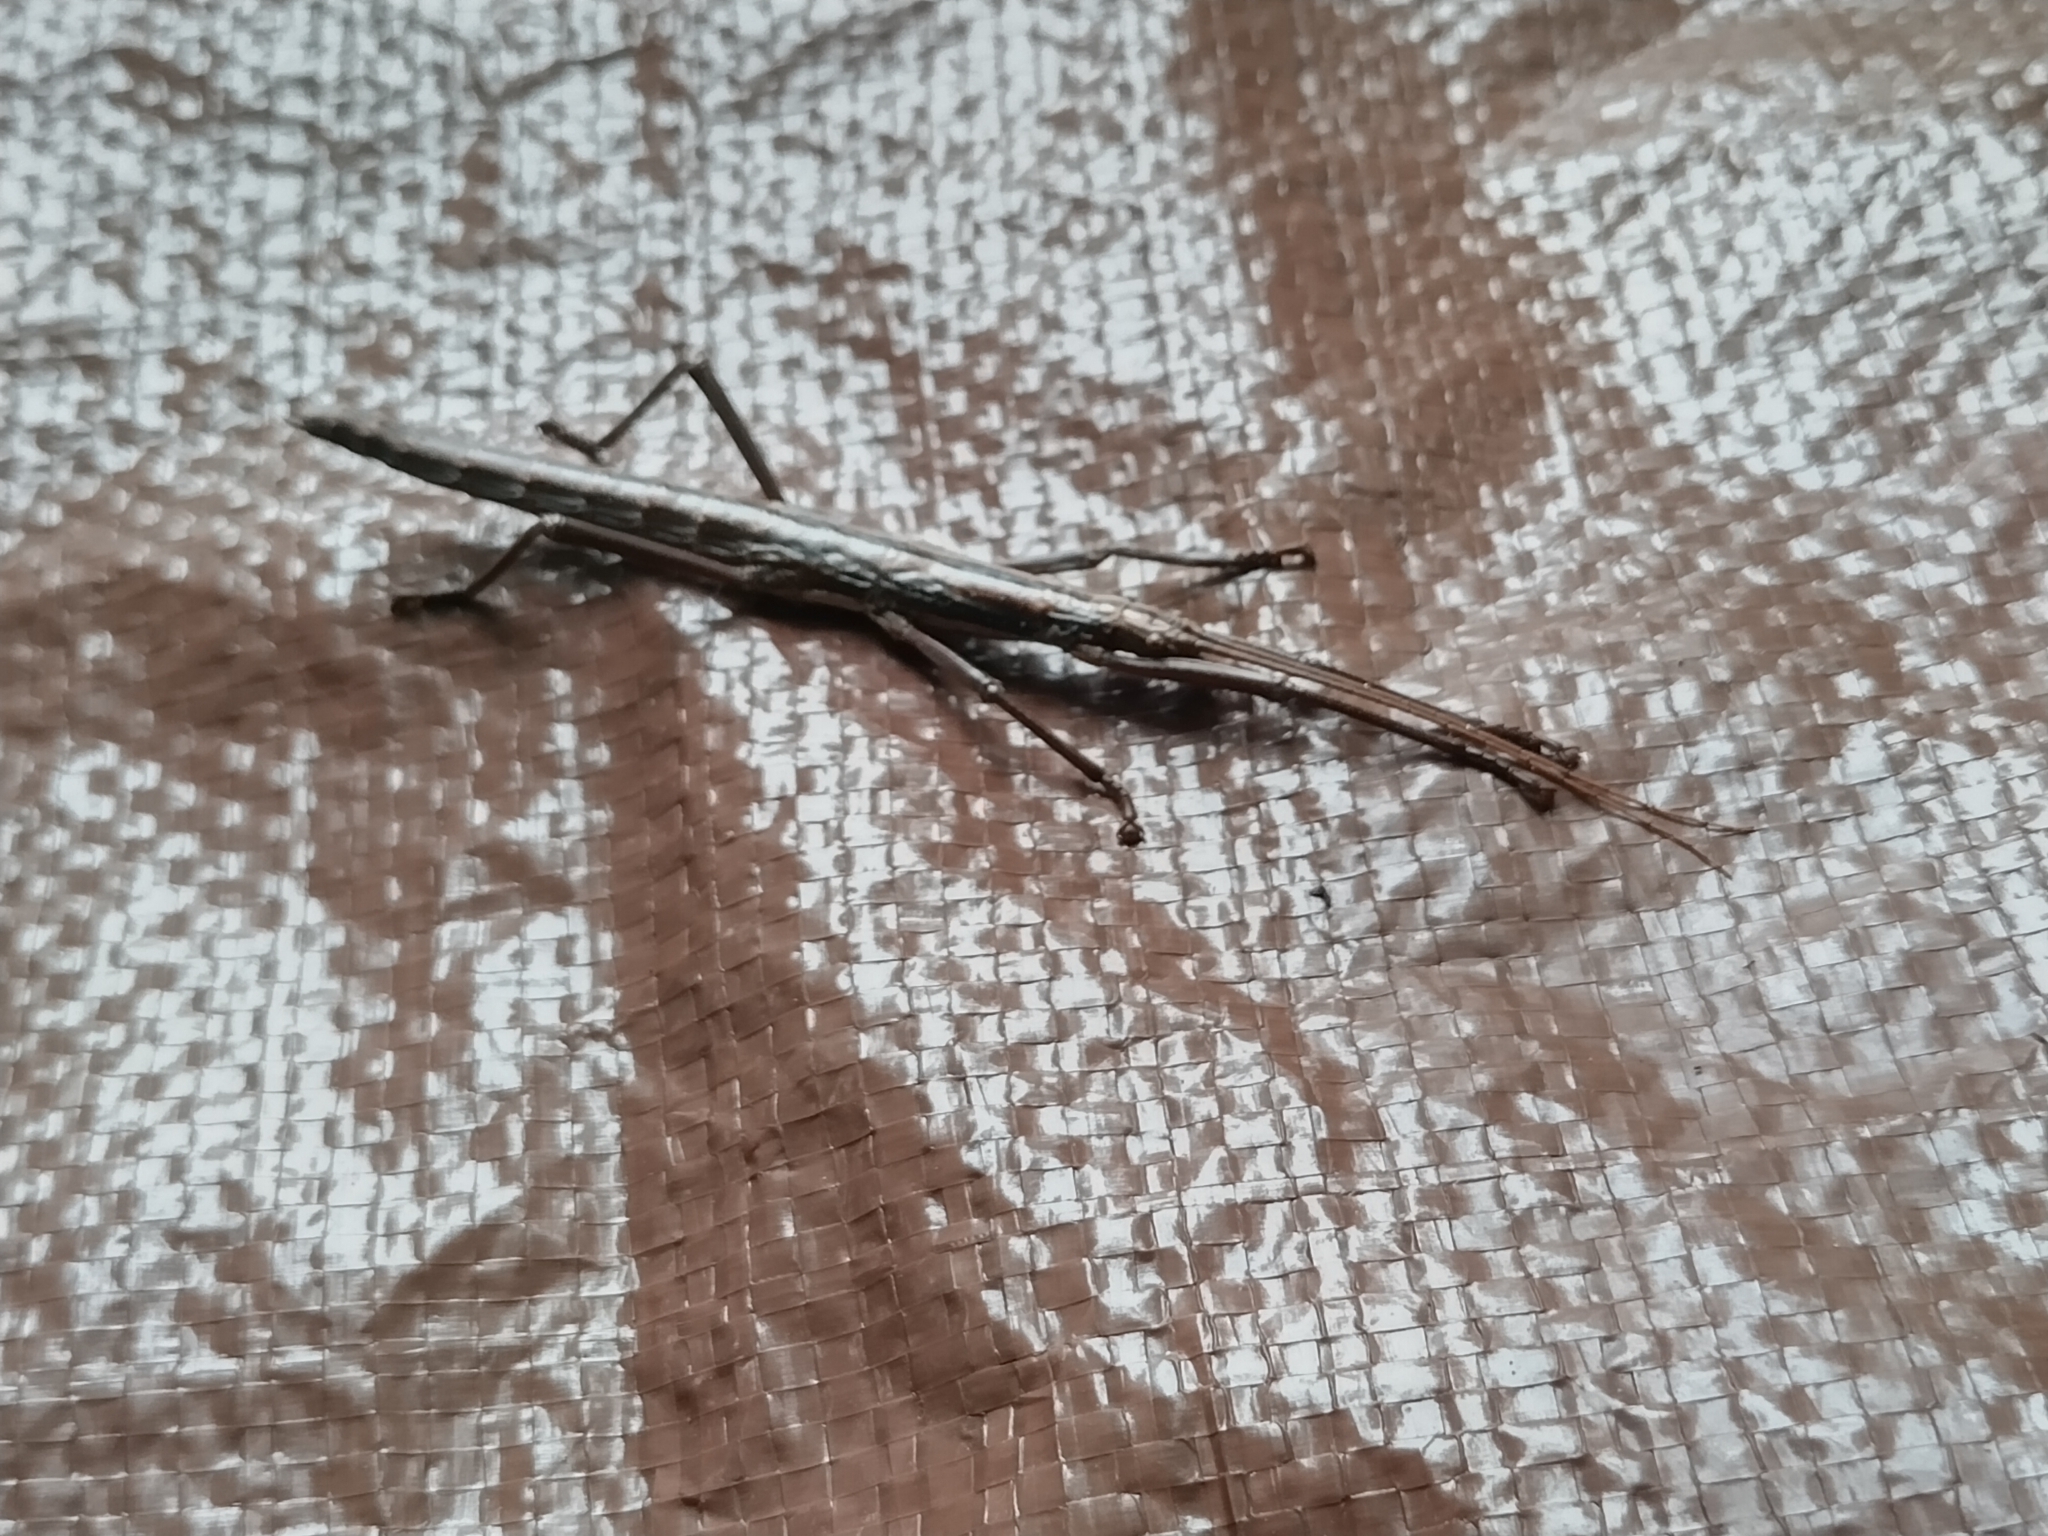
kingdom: Animalia
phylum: Arthropoda
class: Insecta
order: Phasmida
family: Pseudophasmatidae
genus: Anisomorpha
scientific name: Anisomorpha buprestoides
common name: Florida stick insect
